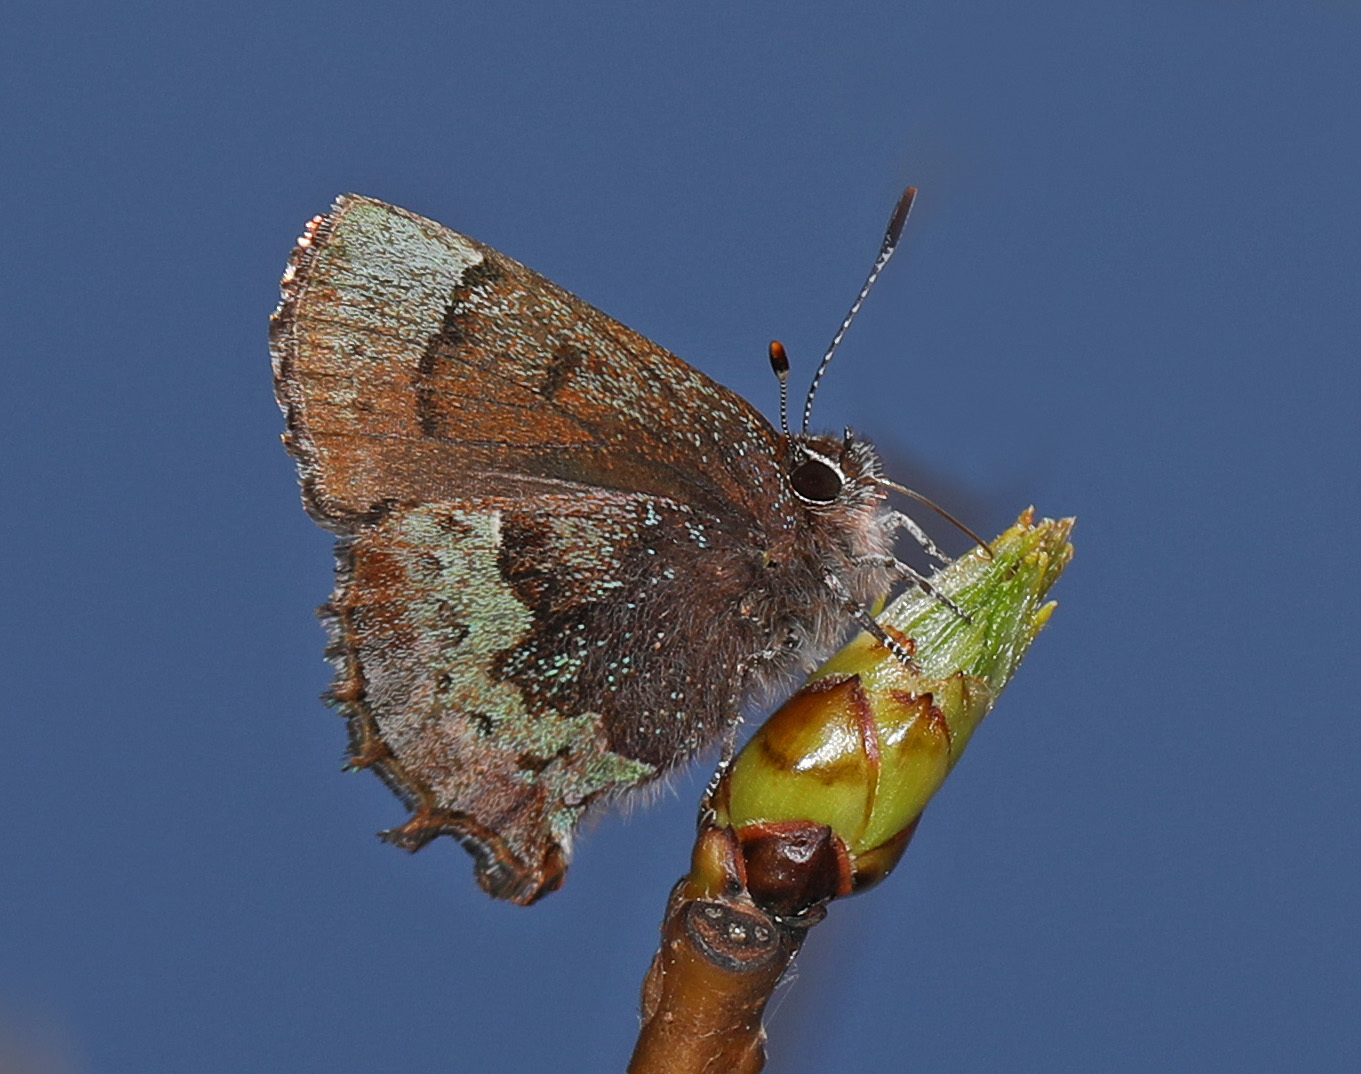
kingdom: Animalia
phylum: Arthropoda
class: Insecta
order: Lepidoptera
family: Lycaenidae
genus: Incisalia
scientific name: Incisalia henrici
